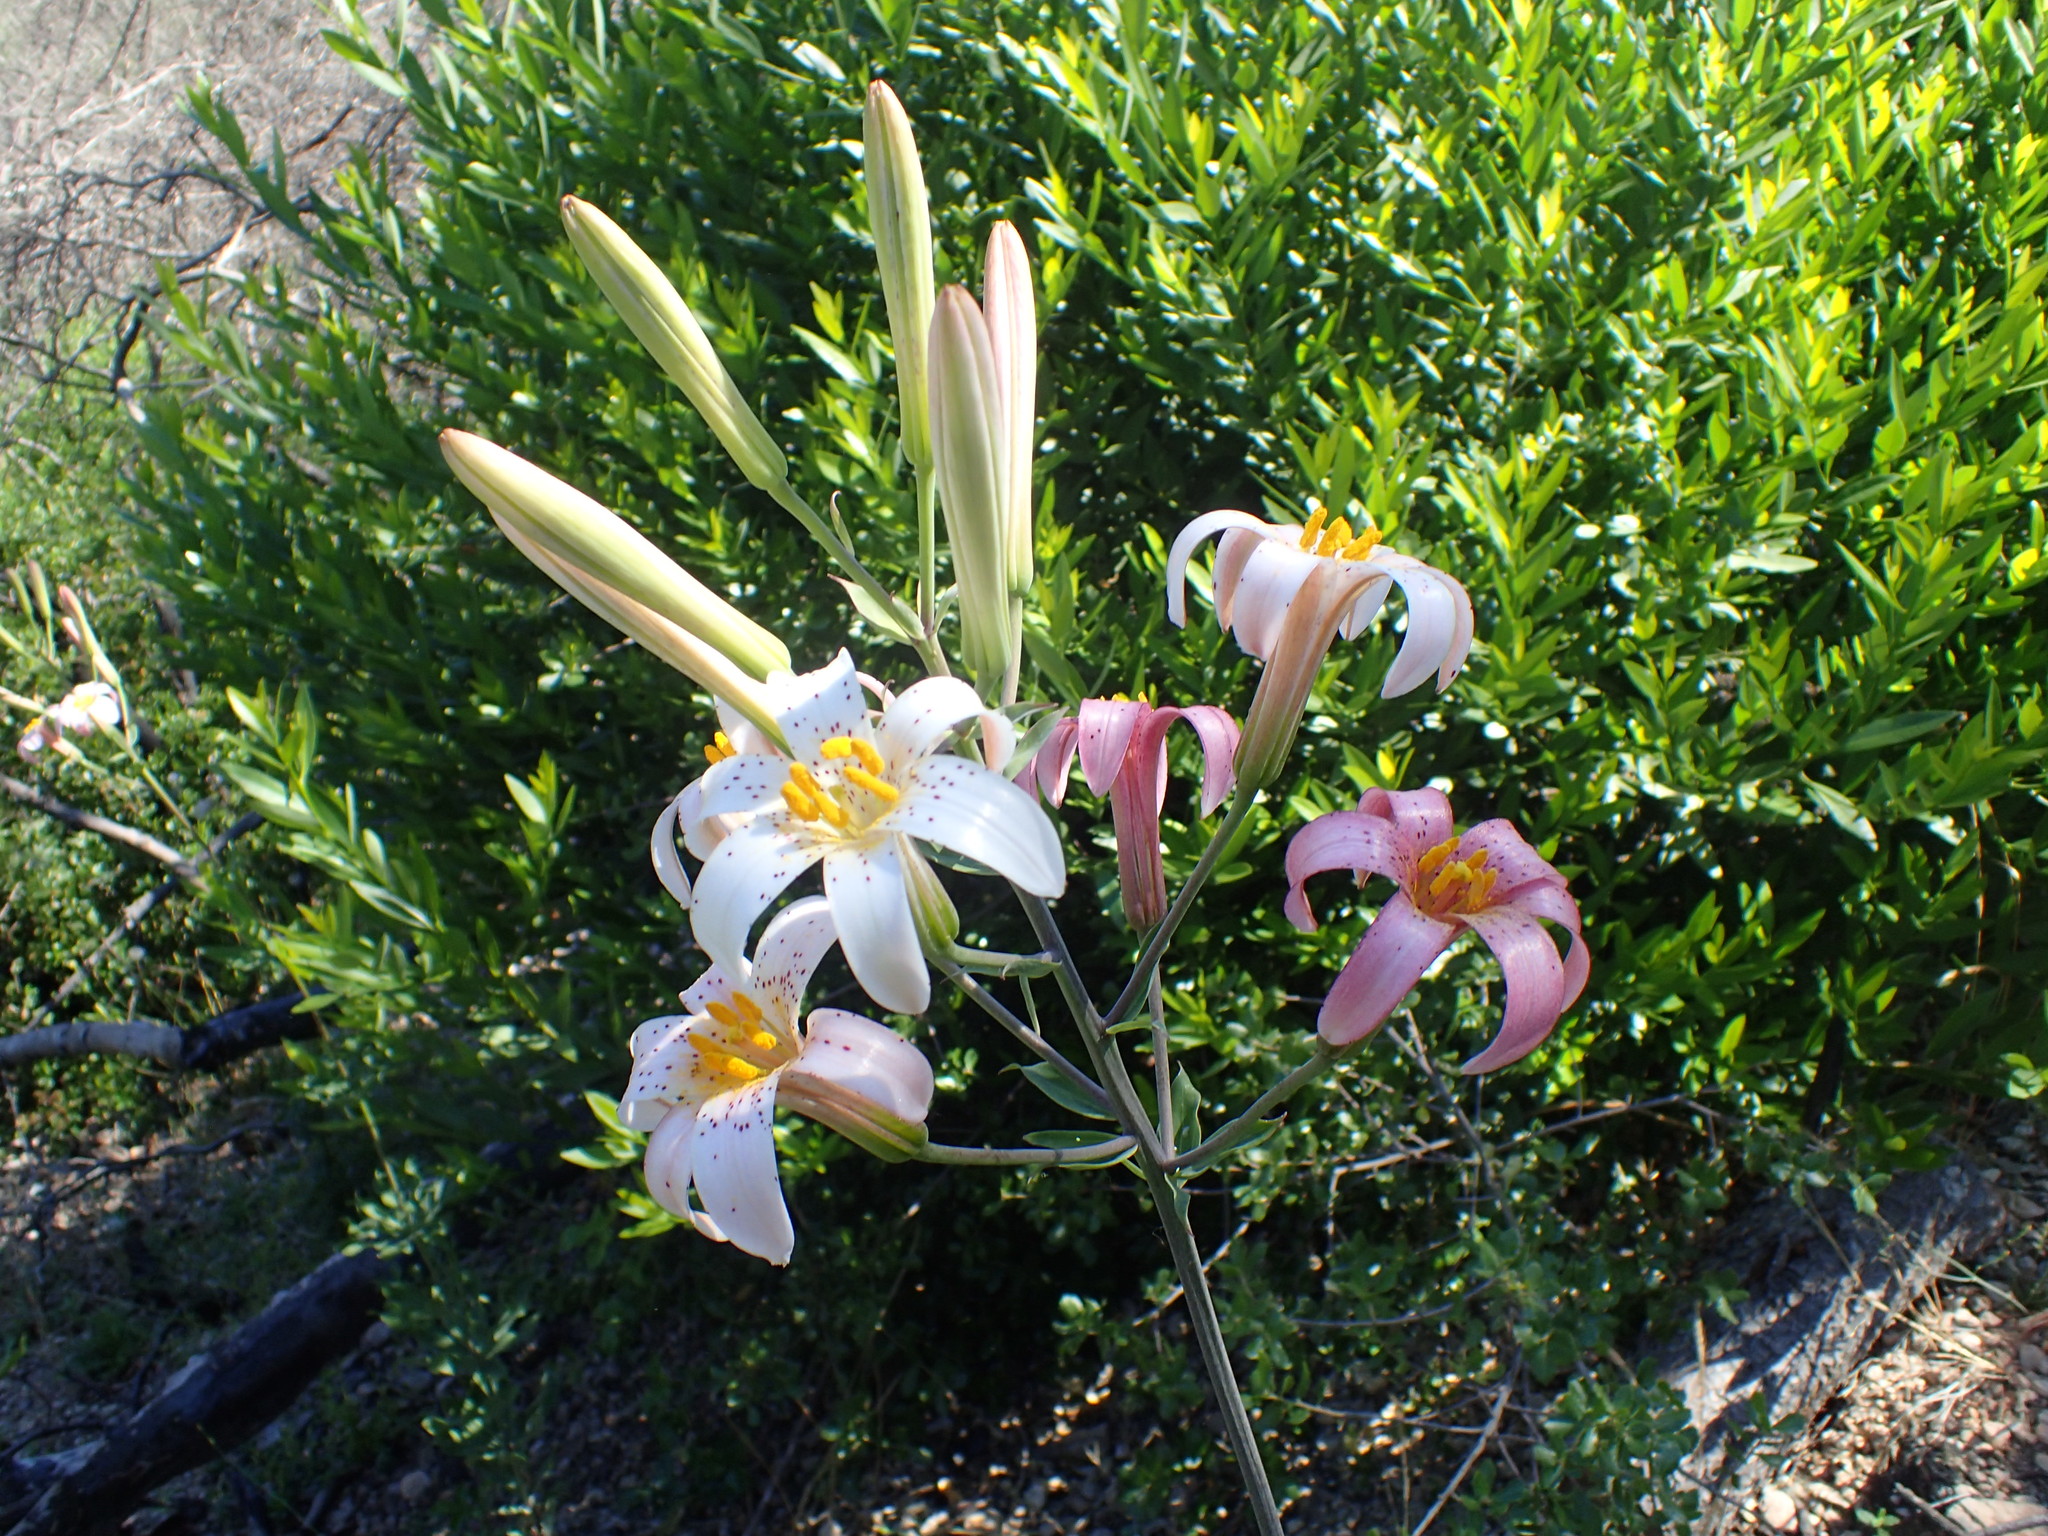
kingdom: Plantae
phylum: Tracheophyta
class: Liliopsida
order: Liliales
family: Liliaceae
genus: Lilium
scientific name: Lilium rubescens
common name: Chamise lily
